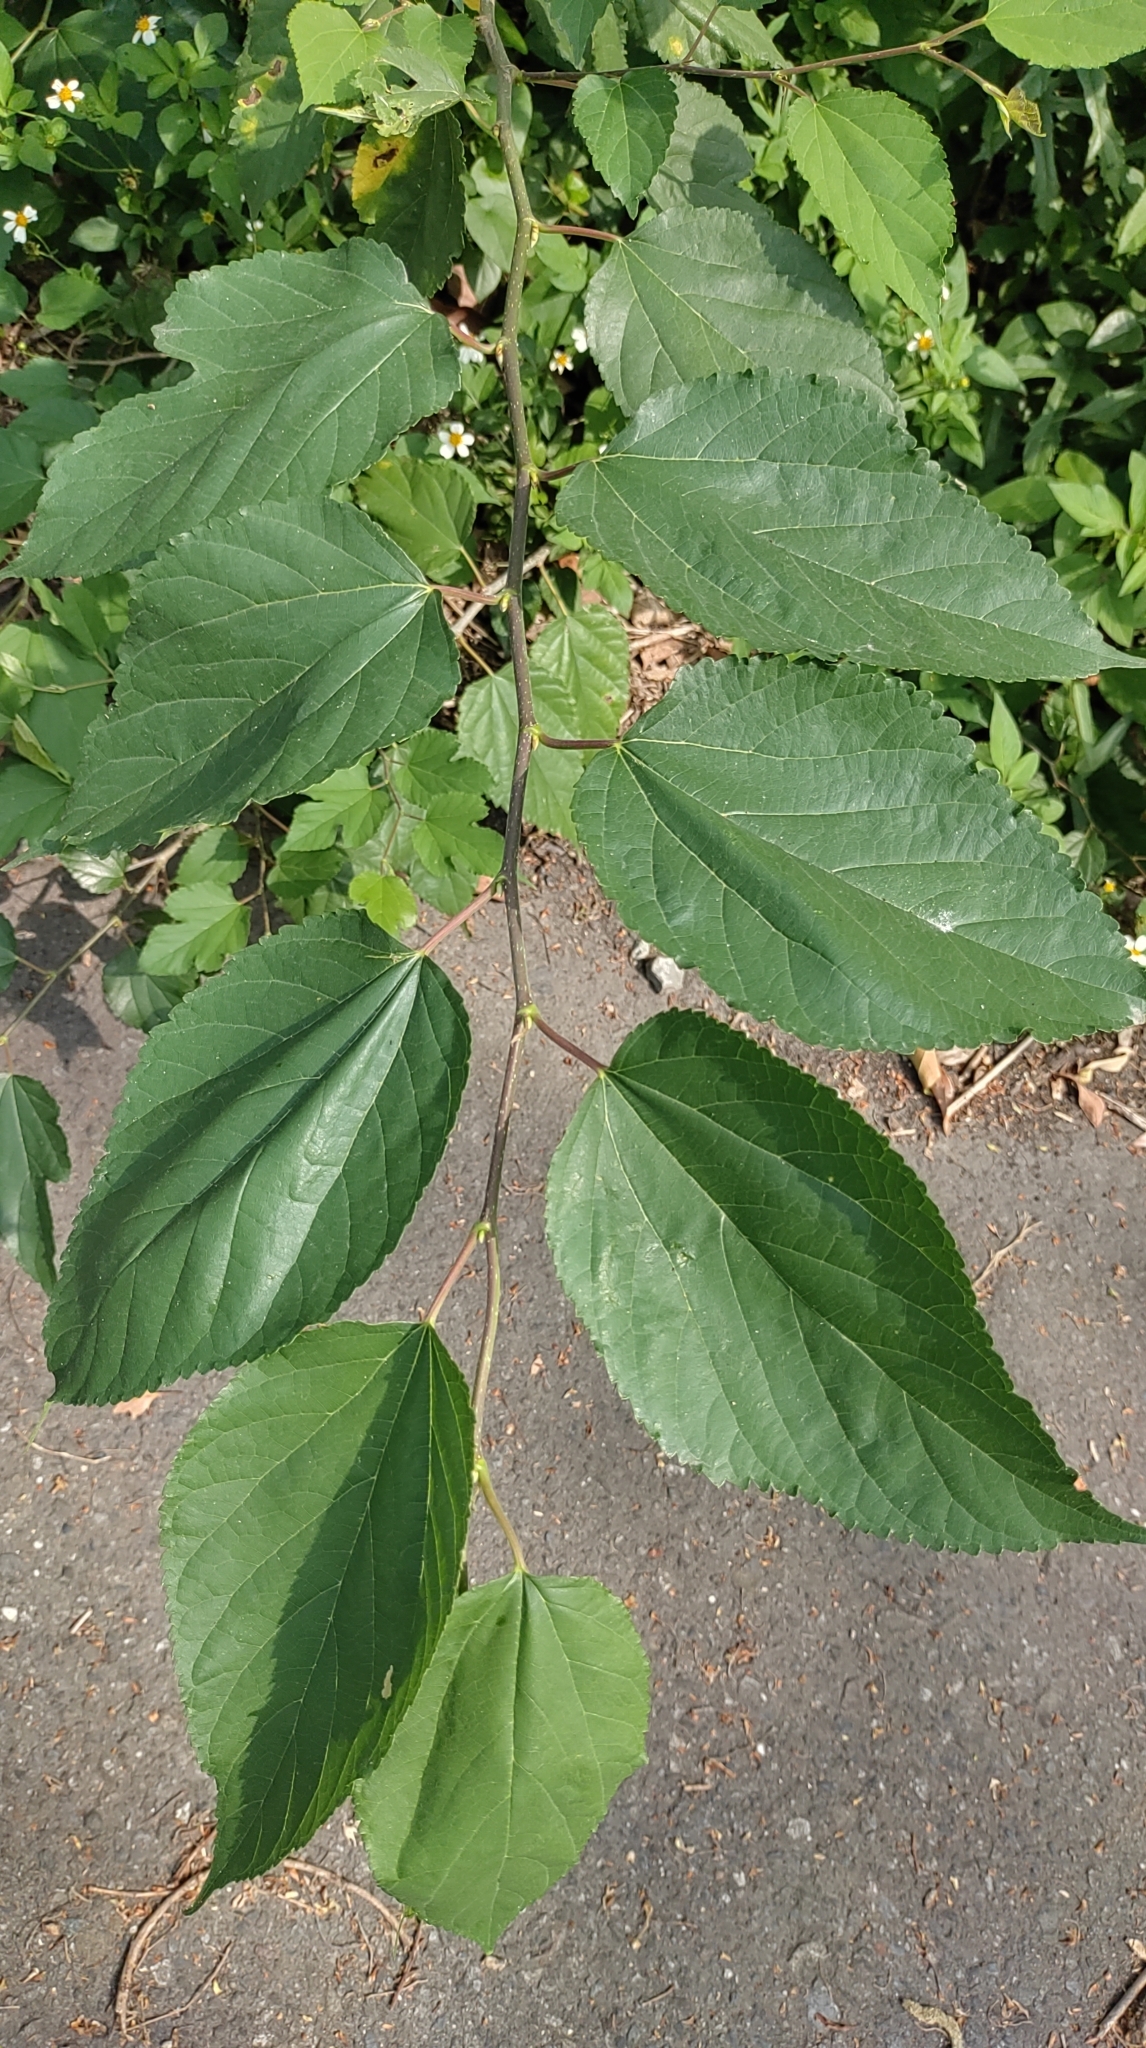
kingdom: Plantae
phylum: Tracheophyta
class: Magnoliopsida
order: Rosales
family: Moraceae
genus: Morus
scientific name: Morus indica
